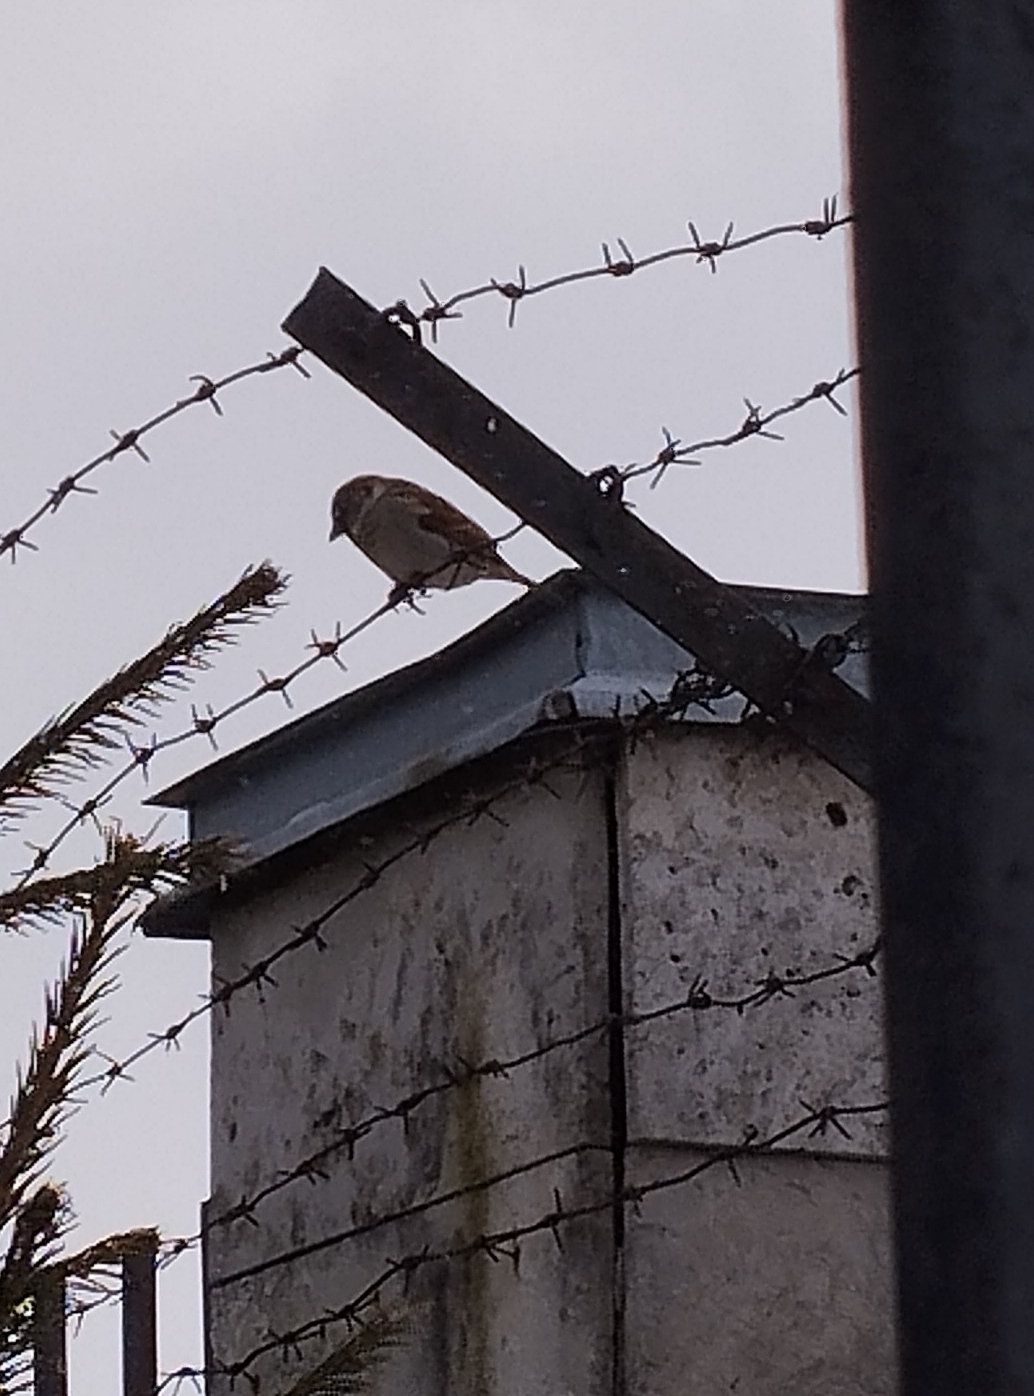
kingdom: Animalia
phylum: Chordata
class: Aves
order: Passeriformes
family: Passeridae
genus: Passer
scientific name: Passer domesticus
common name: House sparrow
